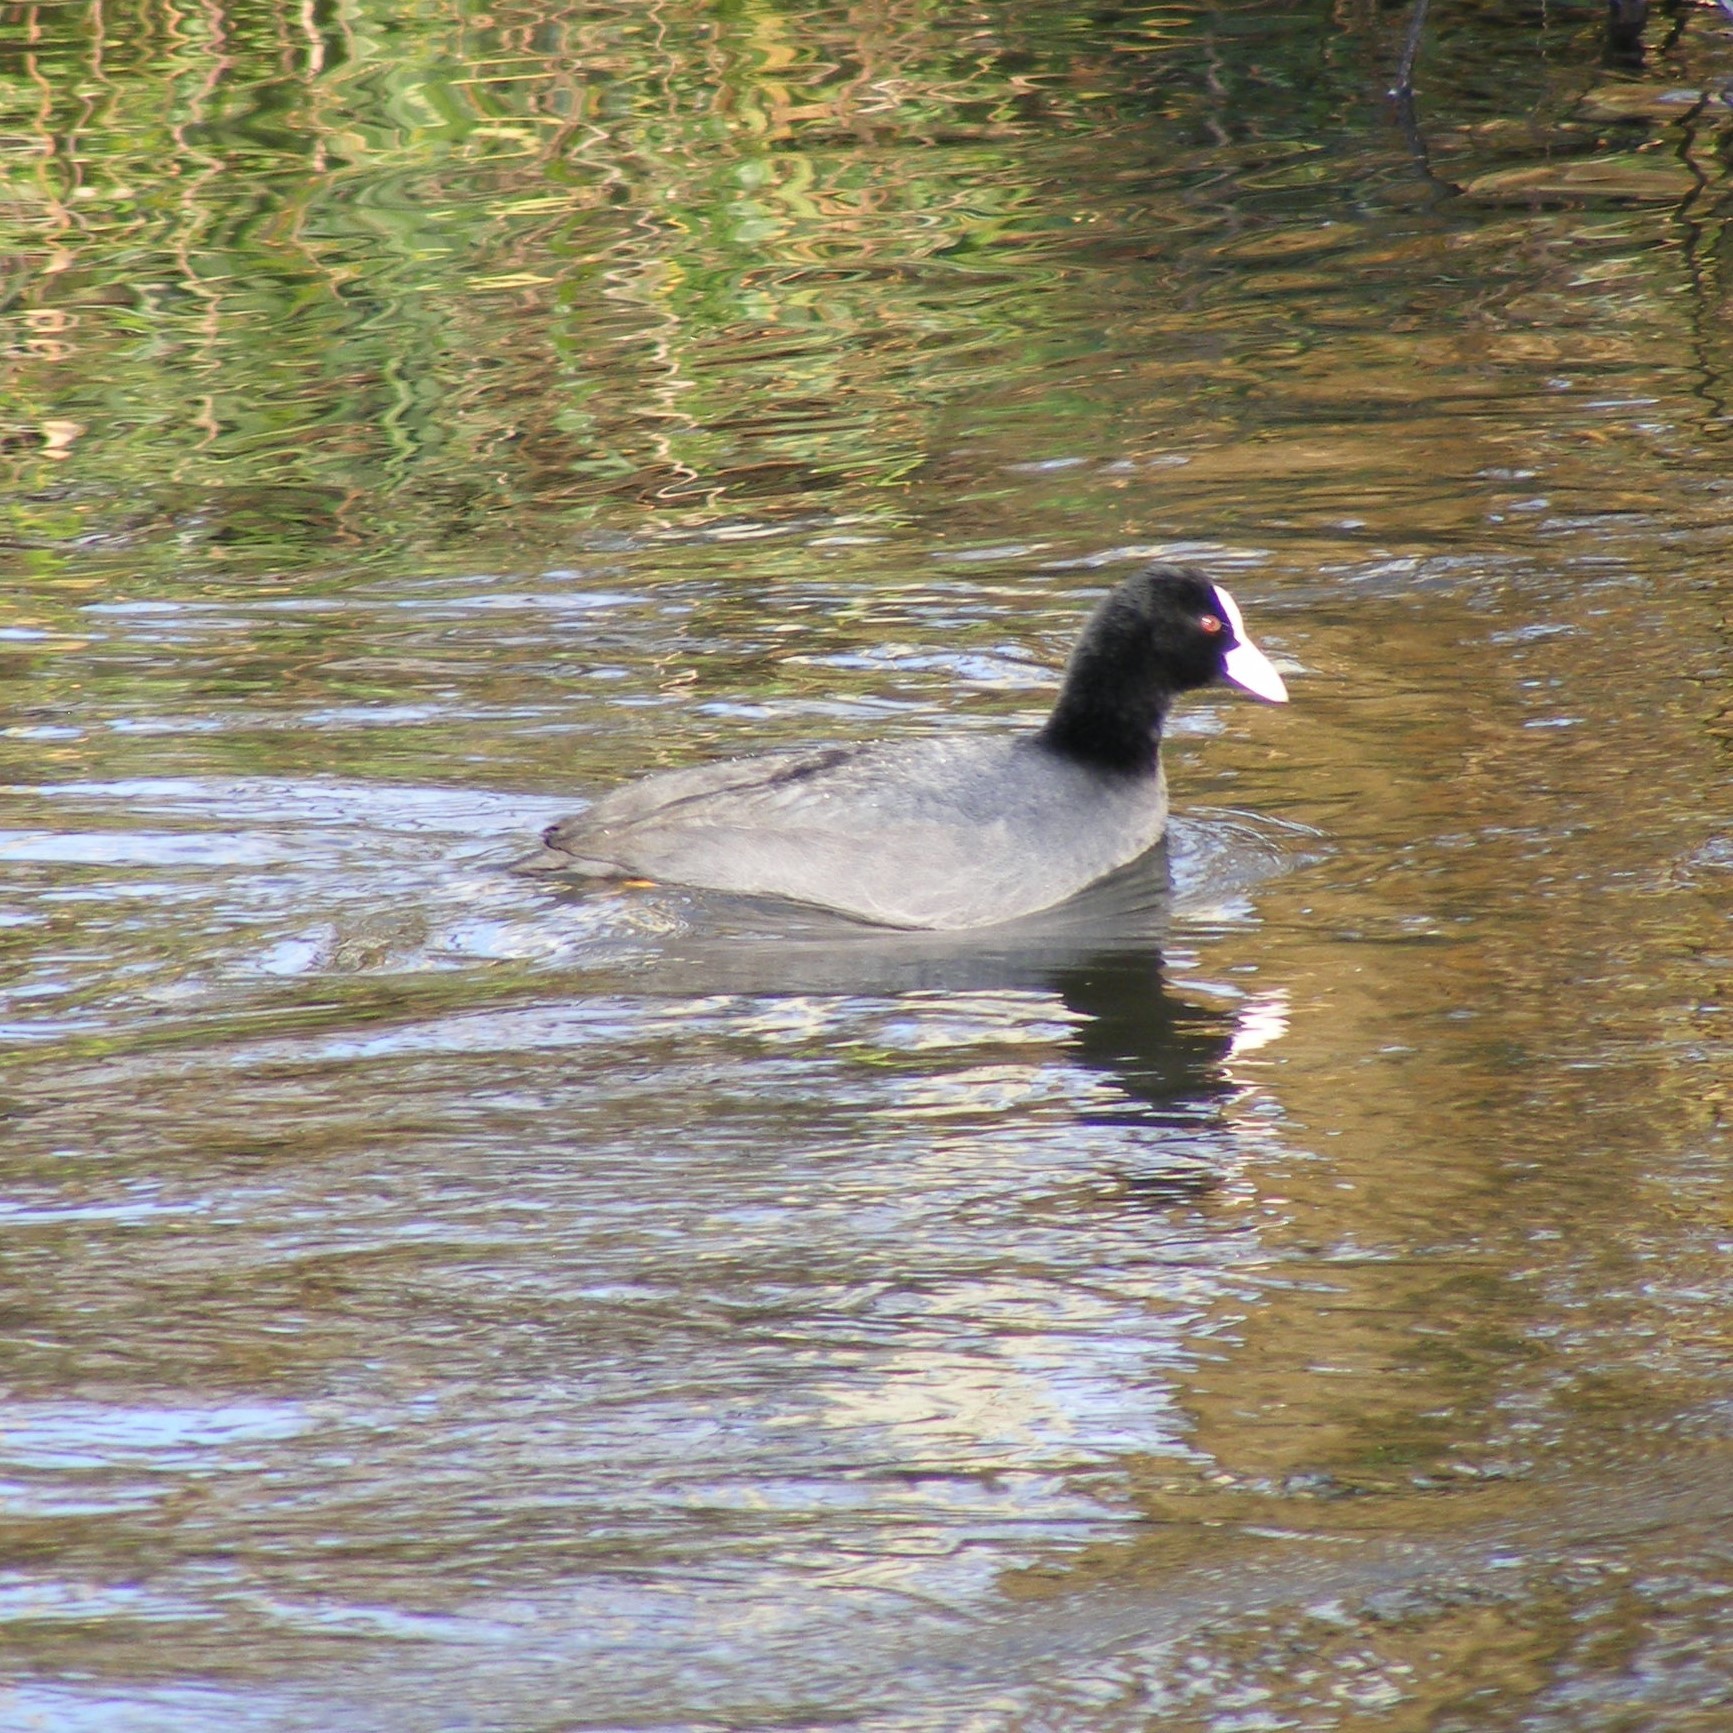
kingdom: Animalia
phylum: Chordata
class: Aves
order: Gruiformes
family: Rallidae
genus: Fulica
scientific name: Fulica atra
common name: Eurasian coot
